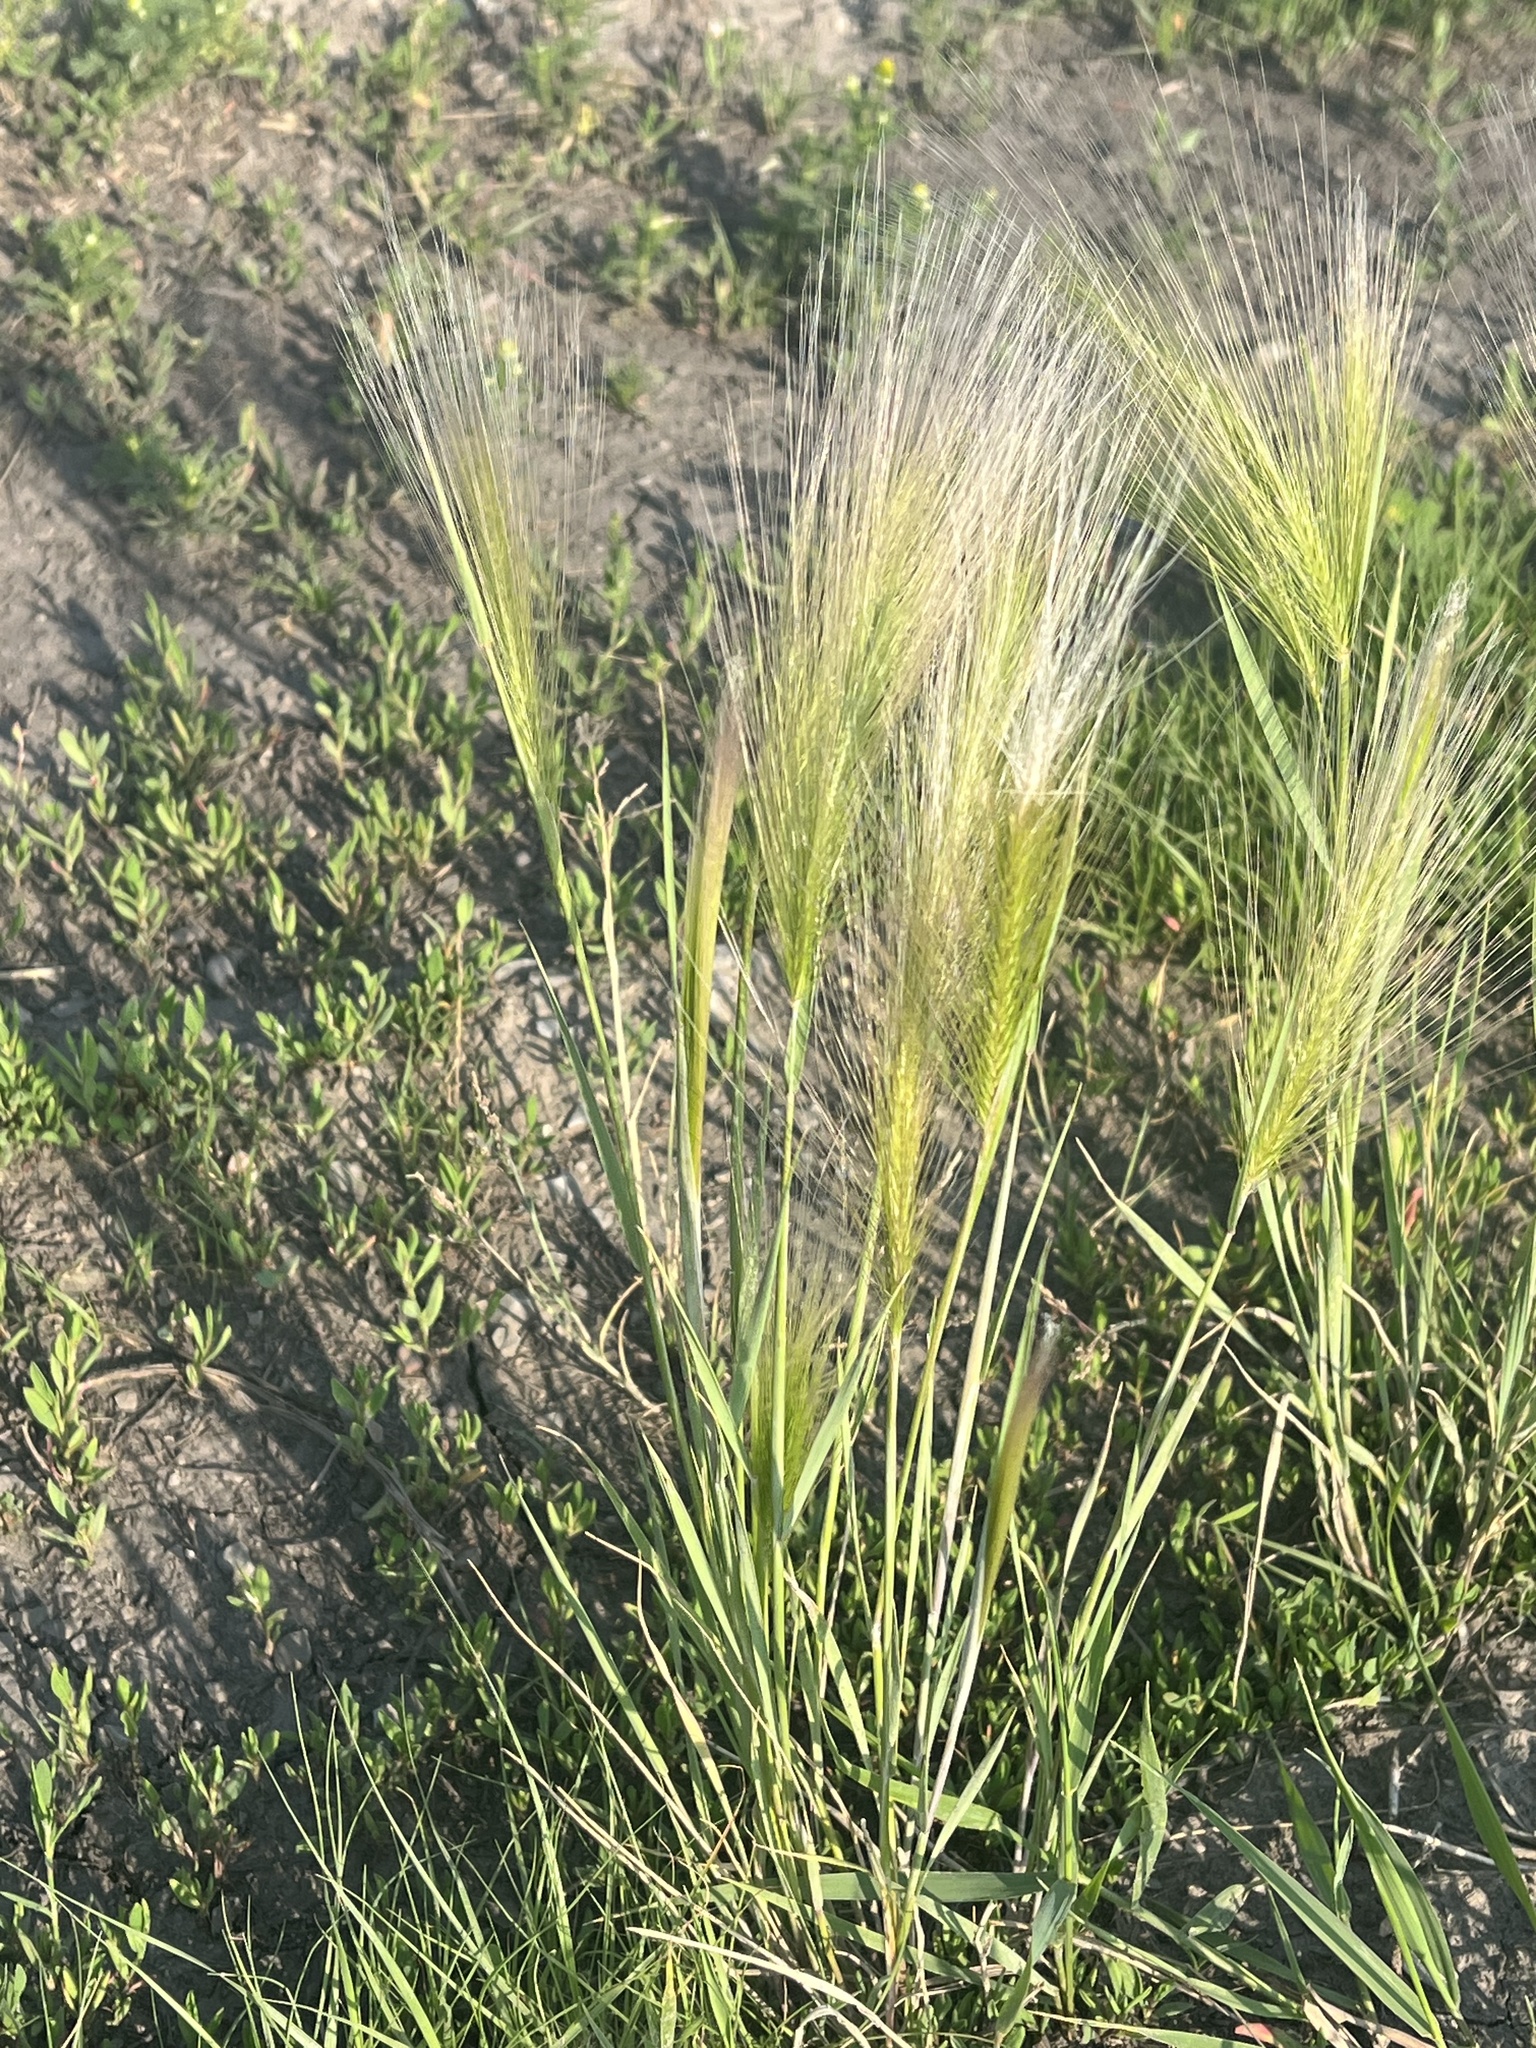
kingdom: Plantae
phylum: Tracheophyta
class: Liliopsida
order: Poales
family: Poaceae
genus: Hordeum
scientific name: Hordeum jubatum
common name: Foxtail barley
